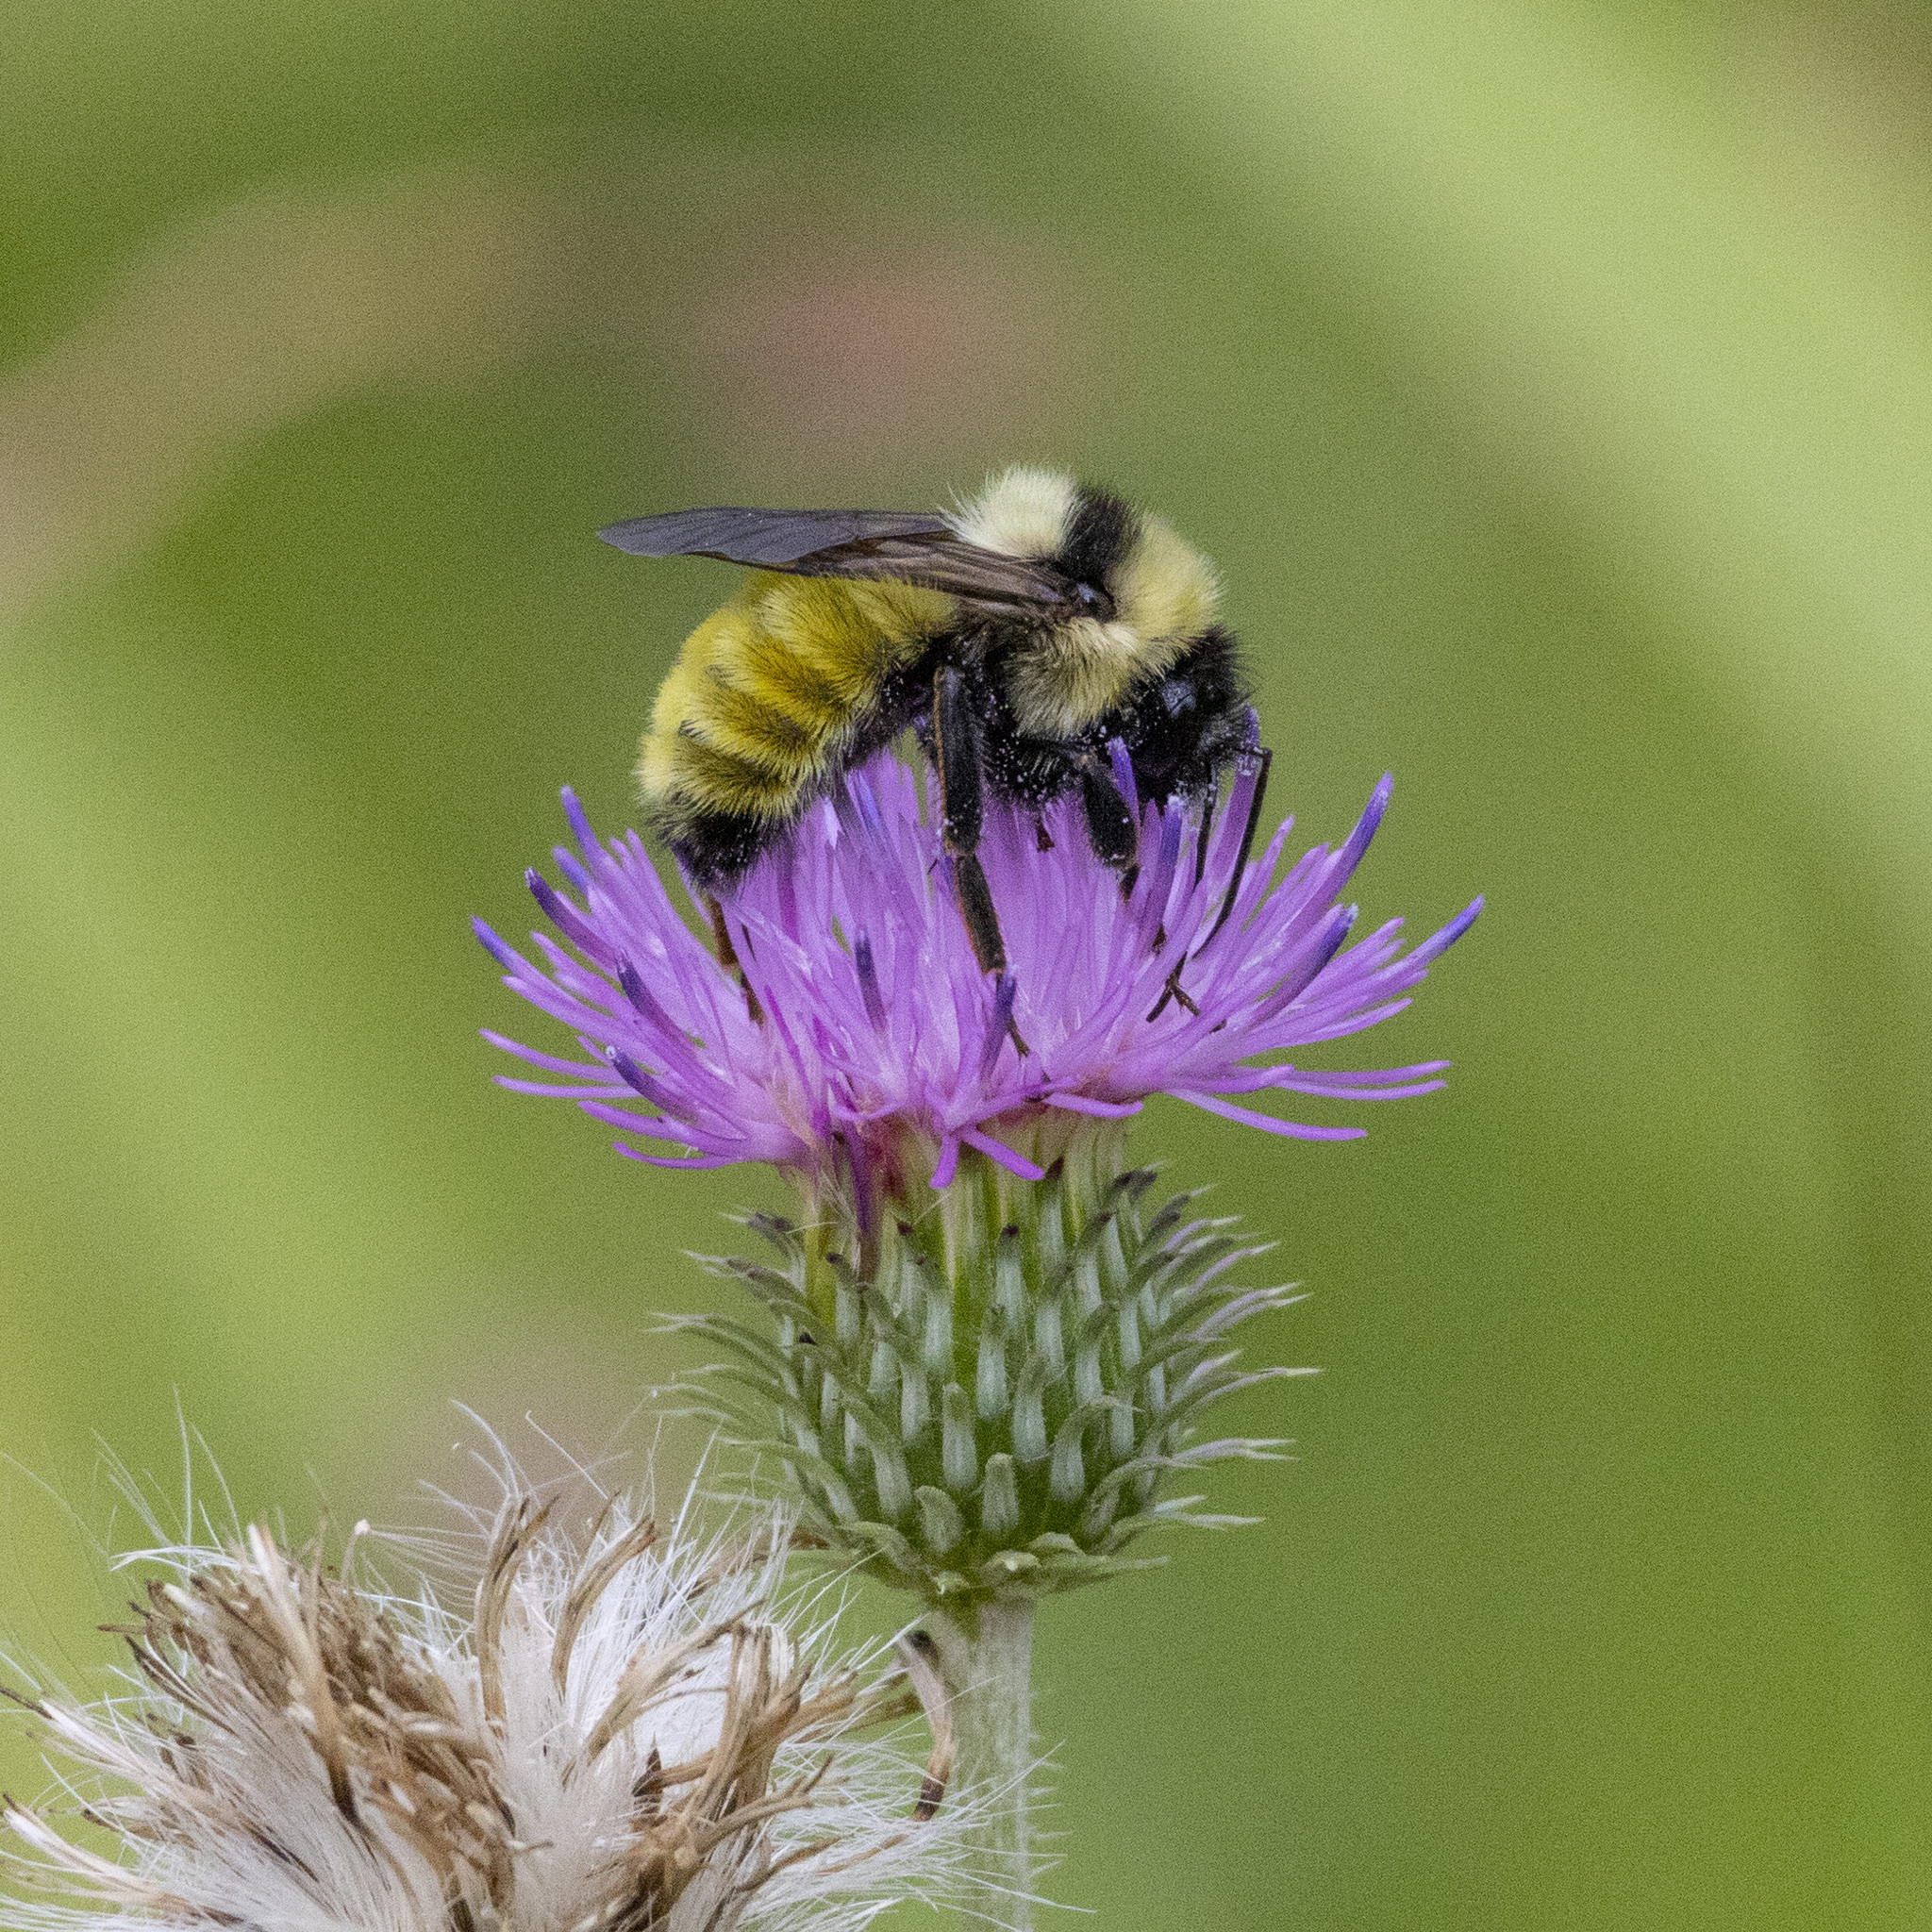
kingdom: Animalia
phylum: Arthropoda
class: Insecta
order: Hymenoptera
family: Apidae
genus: Bombus
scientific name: Bombus fervidus
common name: Yellow bumble bee
